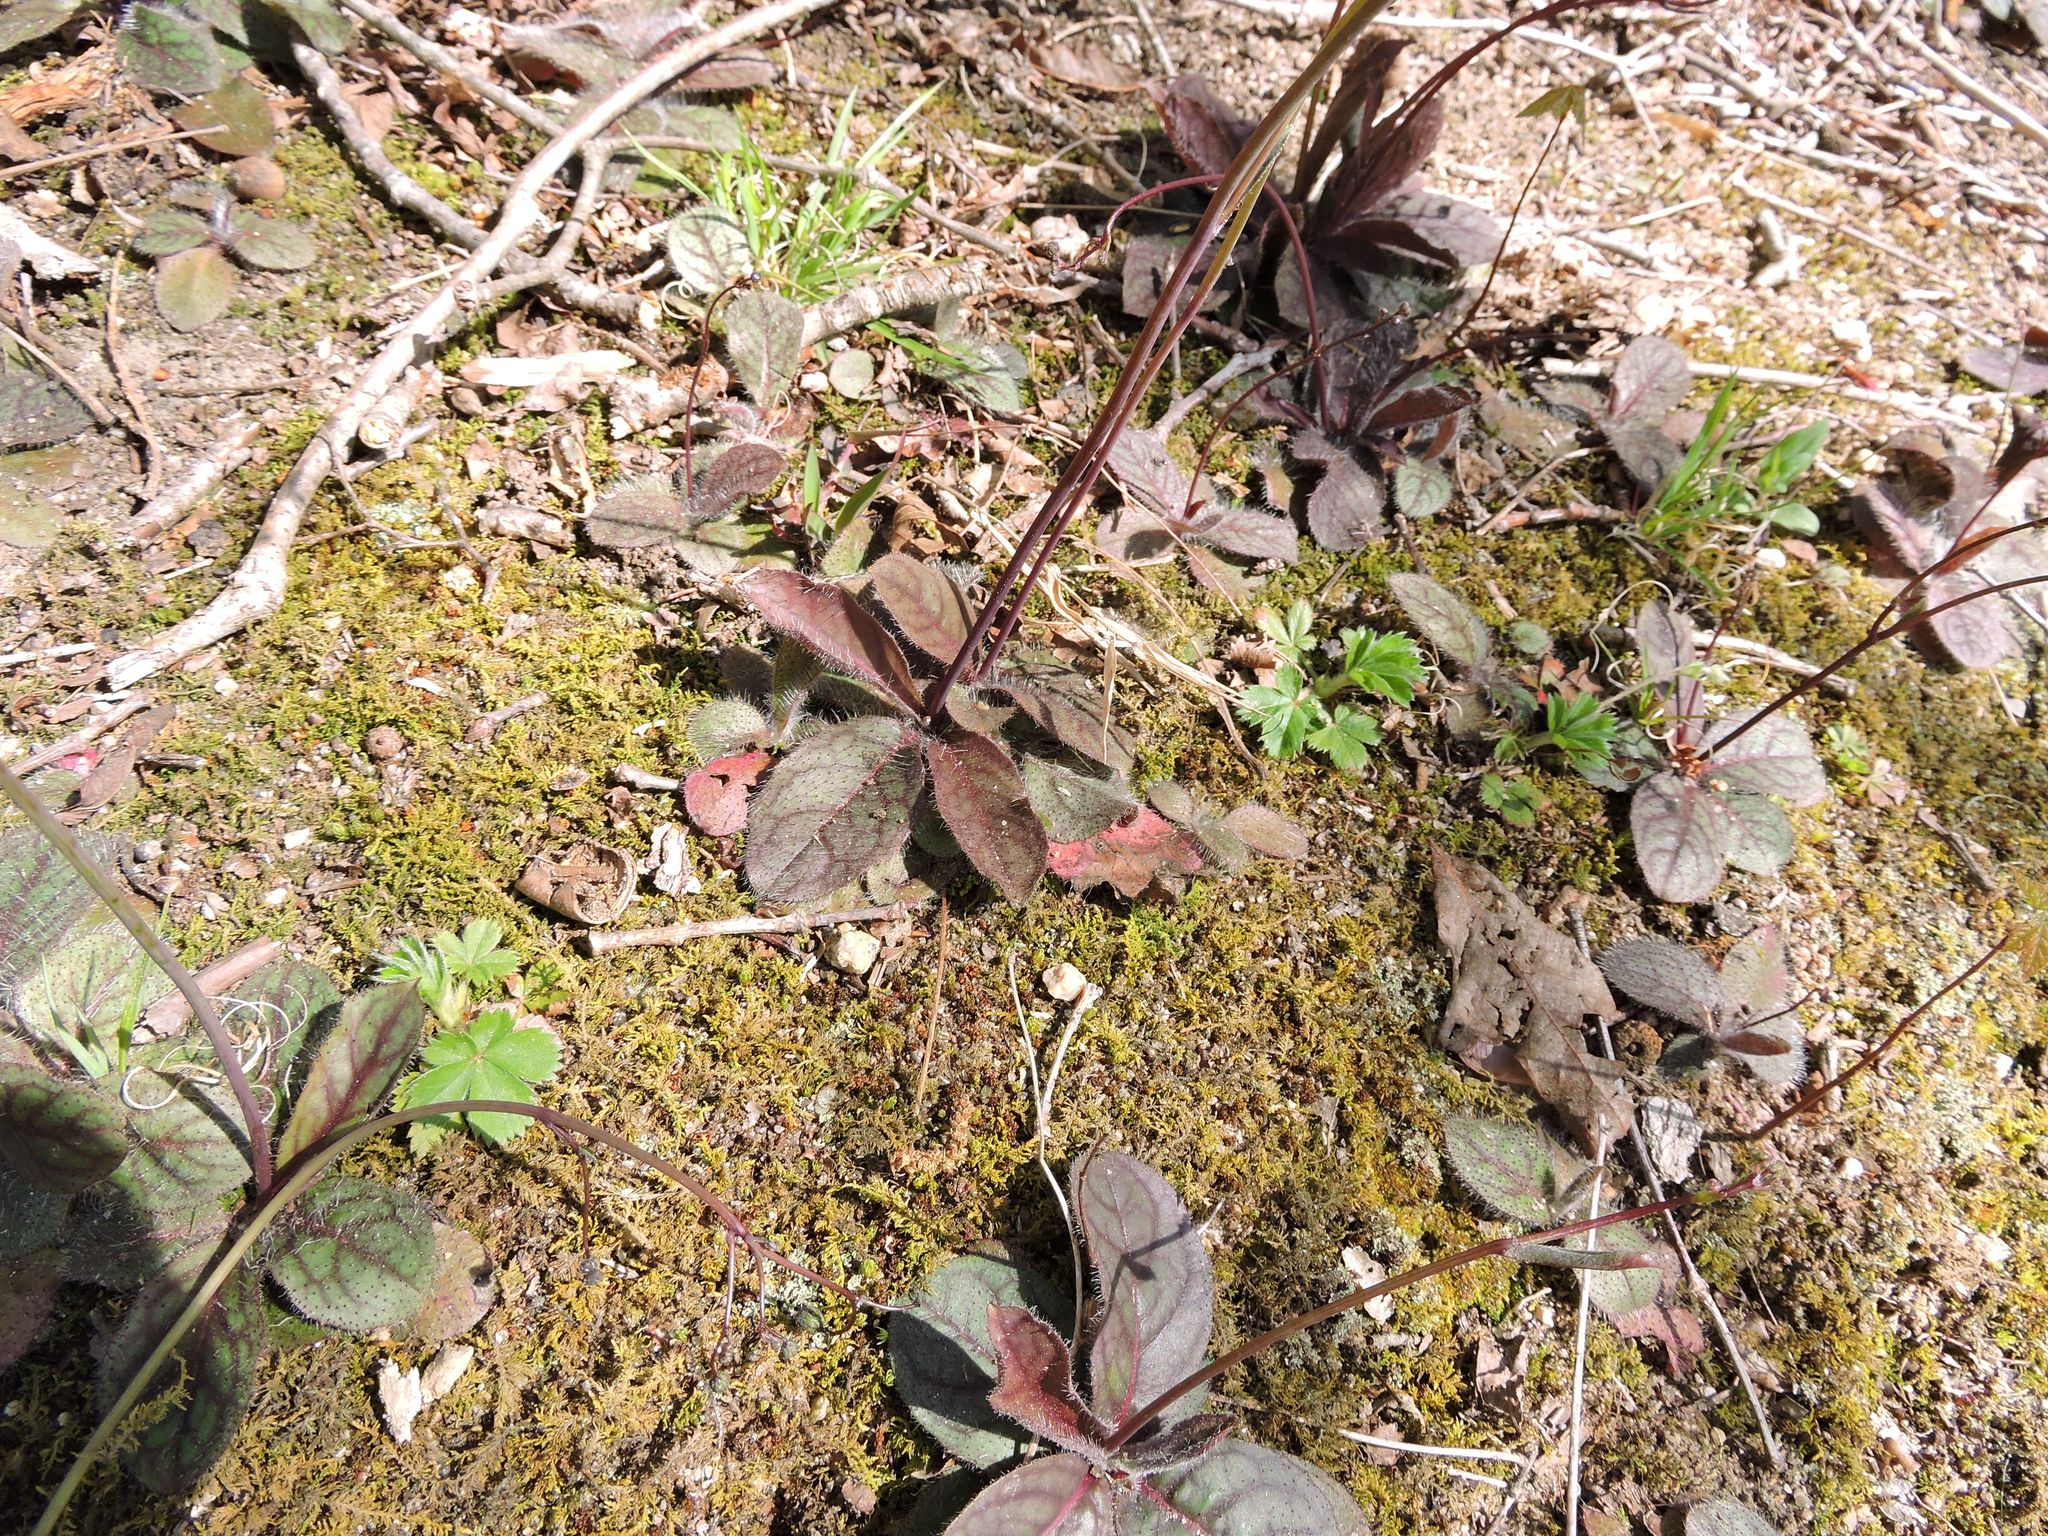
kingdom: Plantae
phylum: Tracheophyta
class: Magnoliopsida
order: Asterales
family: Asteraceae
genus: Hieracium
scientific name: Hieracium venosum
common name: Rattlesnake hawkweed
